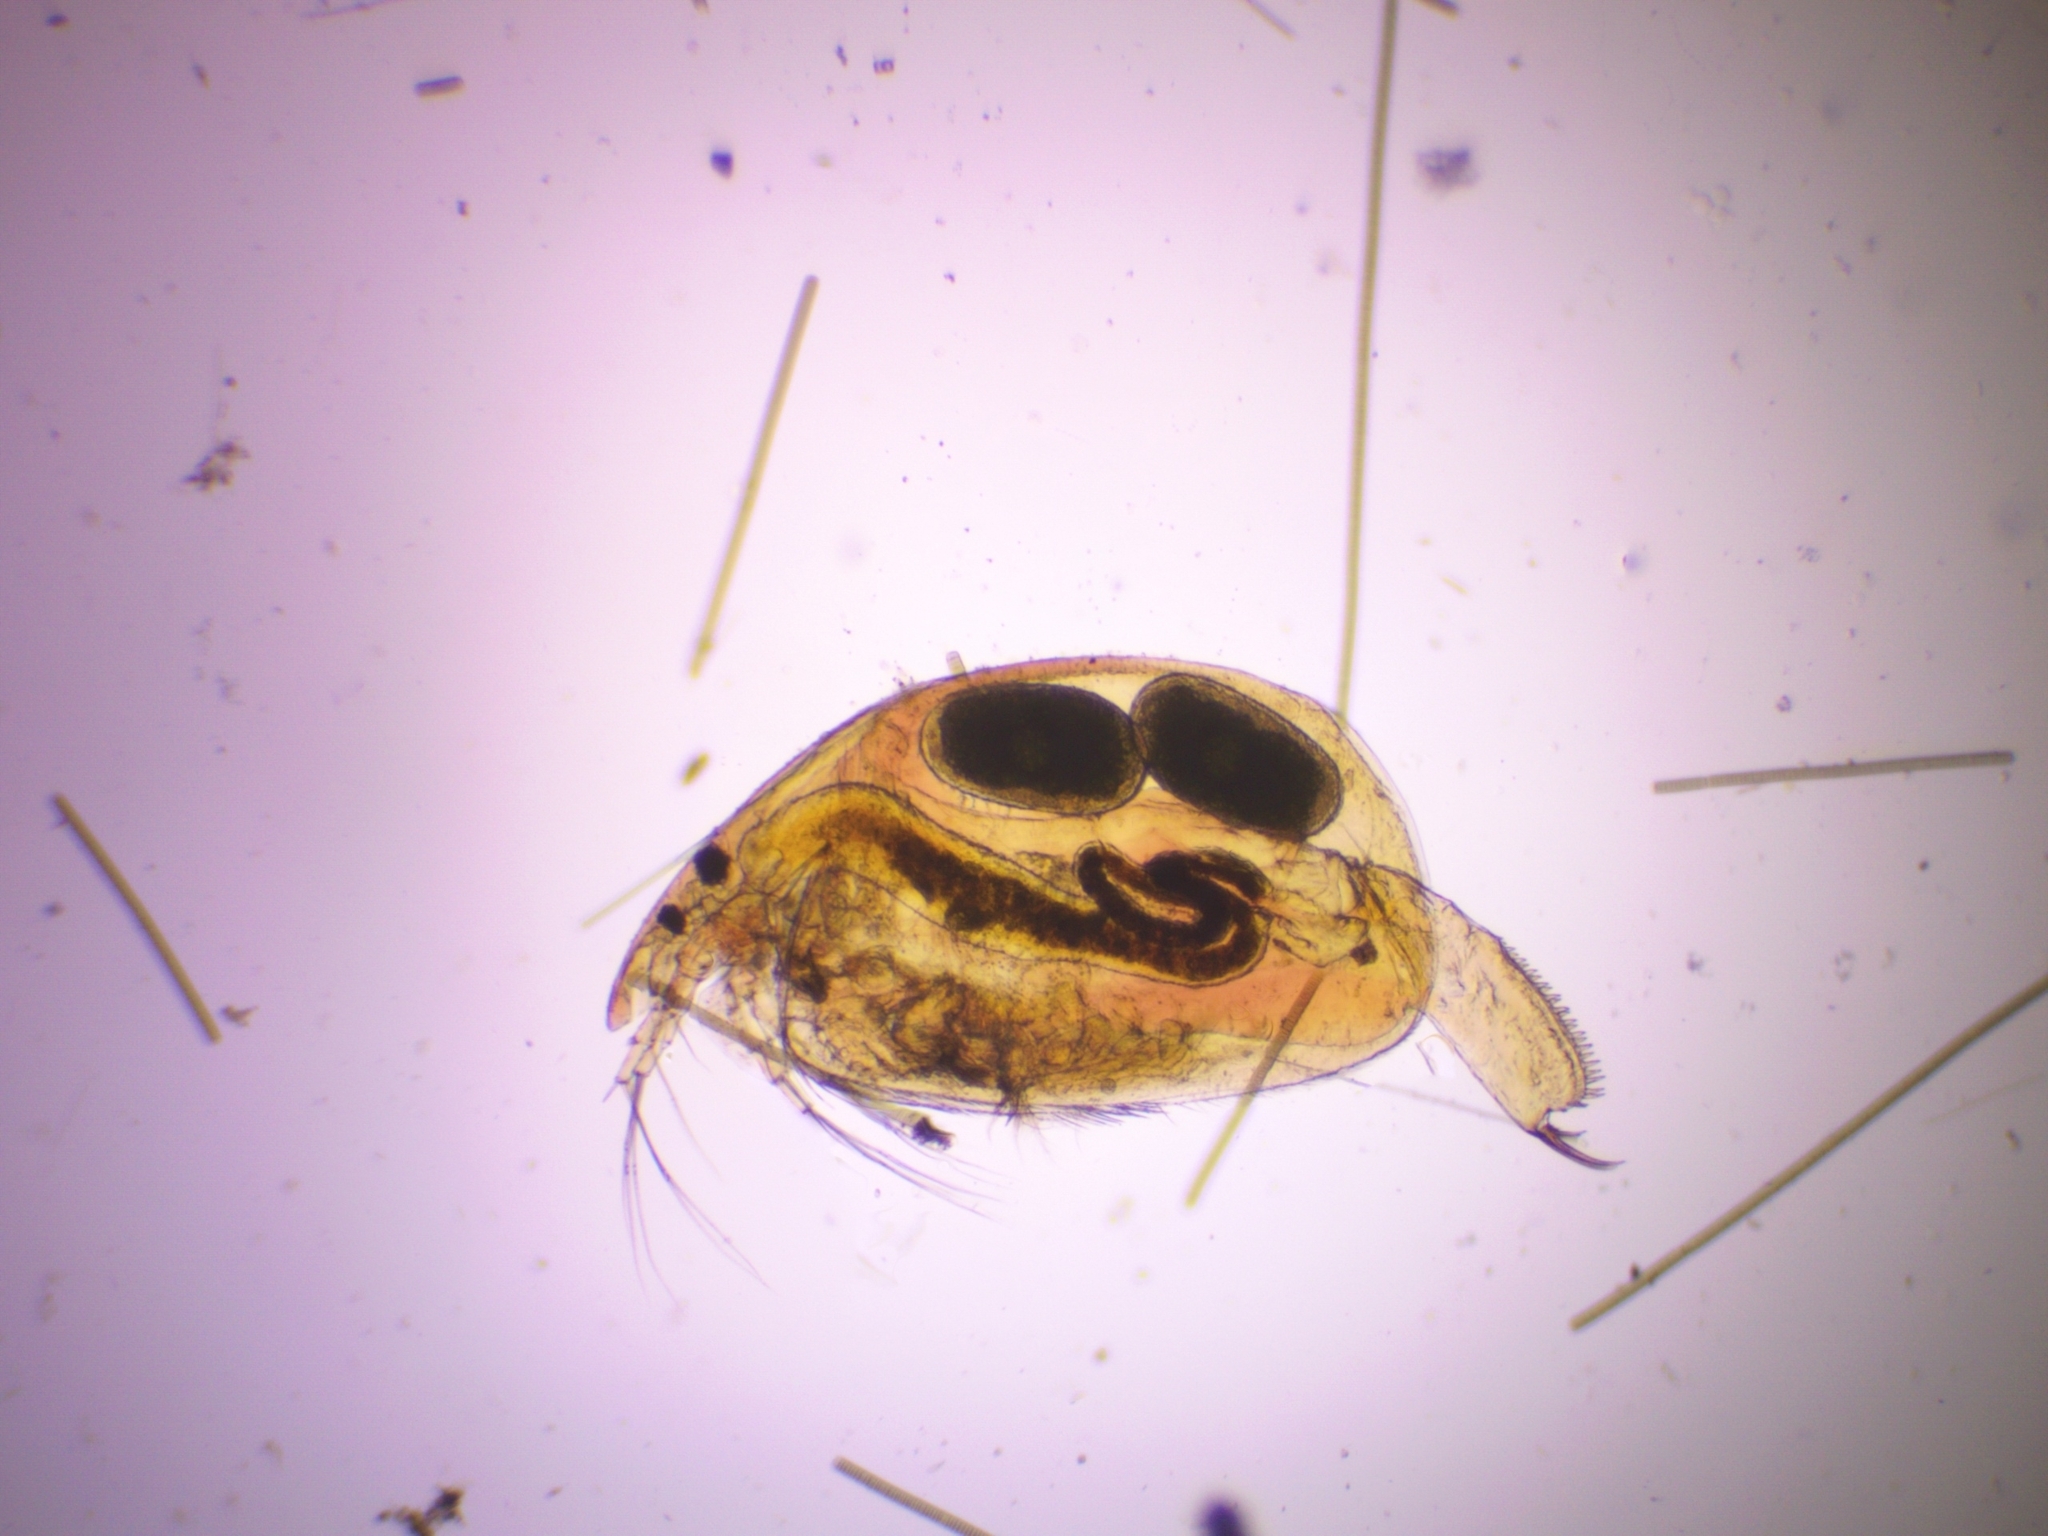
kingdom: Animalia
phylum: Arthropoda
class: Branchiopoda
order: Diplostraca
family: Chydoridae
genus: Alona
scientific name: Alona affinis
